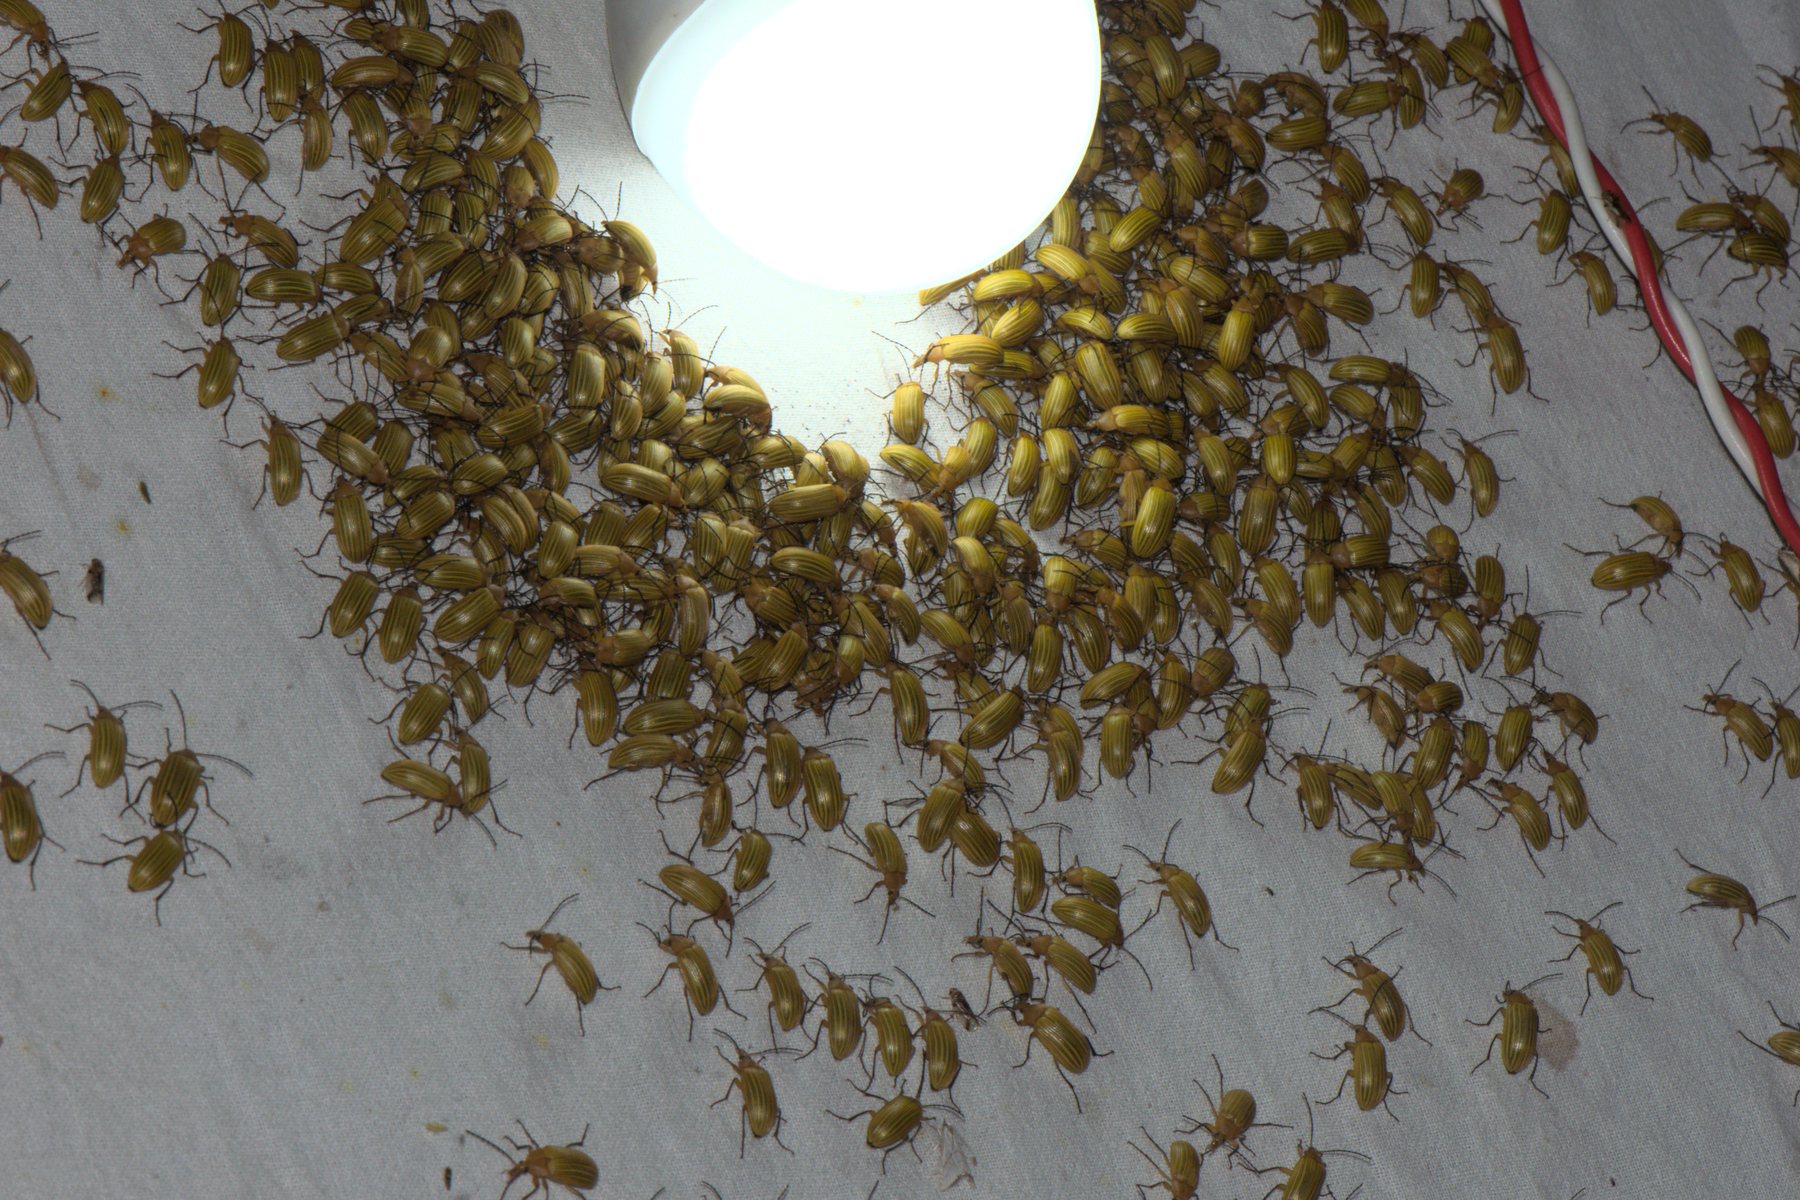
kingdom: Animalia
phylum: Arthropoda
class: Insecta
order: Coleoptera
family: Tenebrionidae
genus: Cistelomorpha
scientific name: Cistelomorpha
